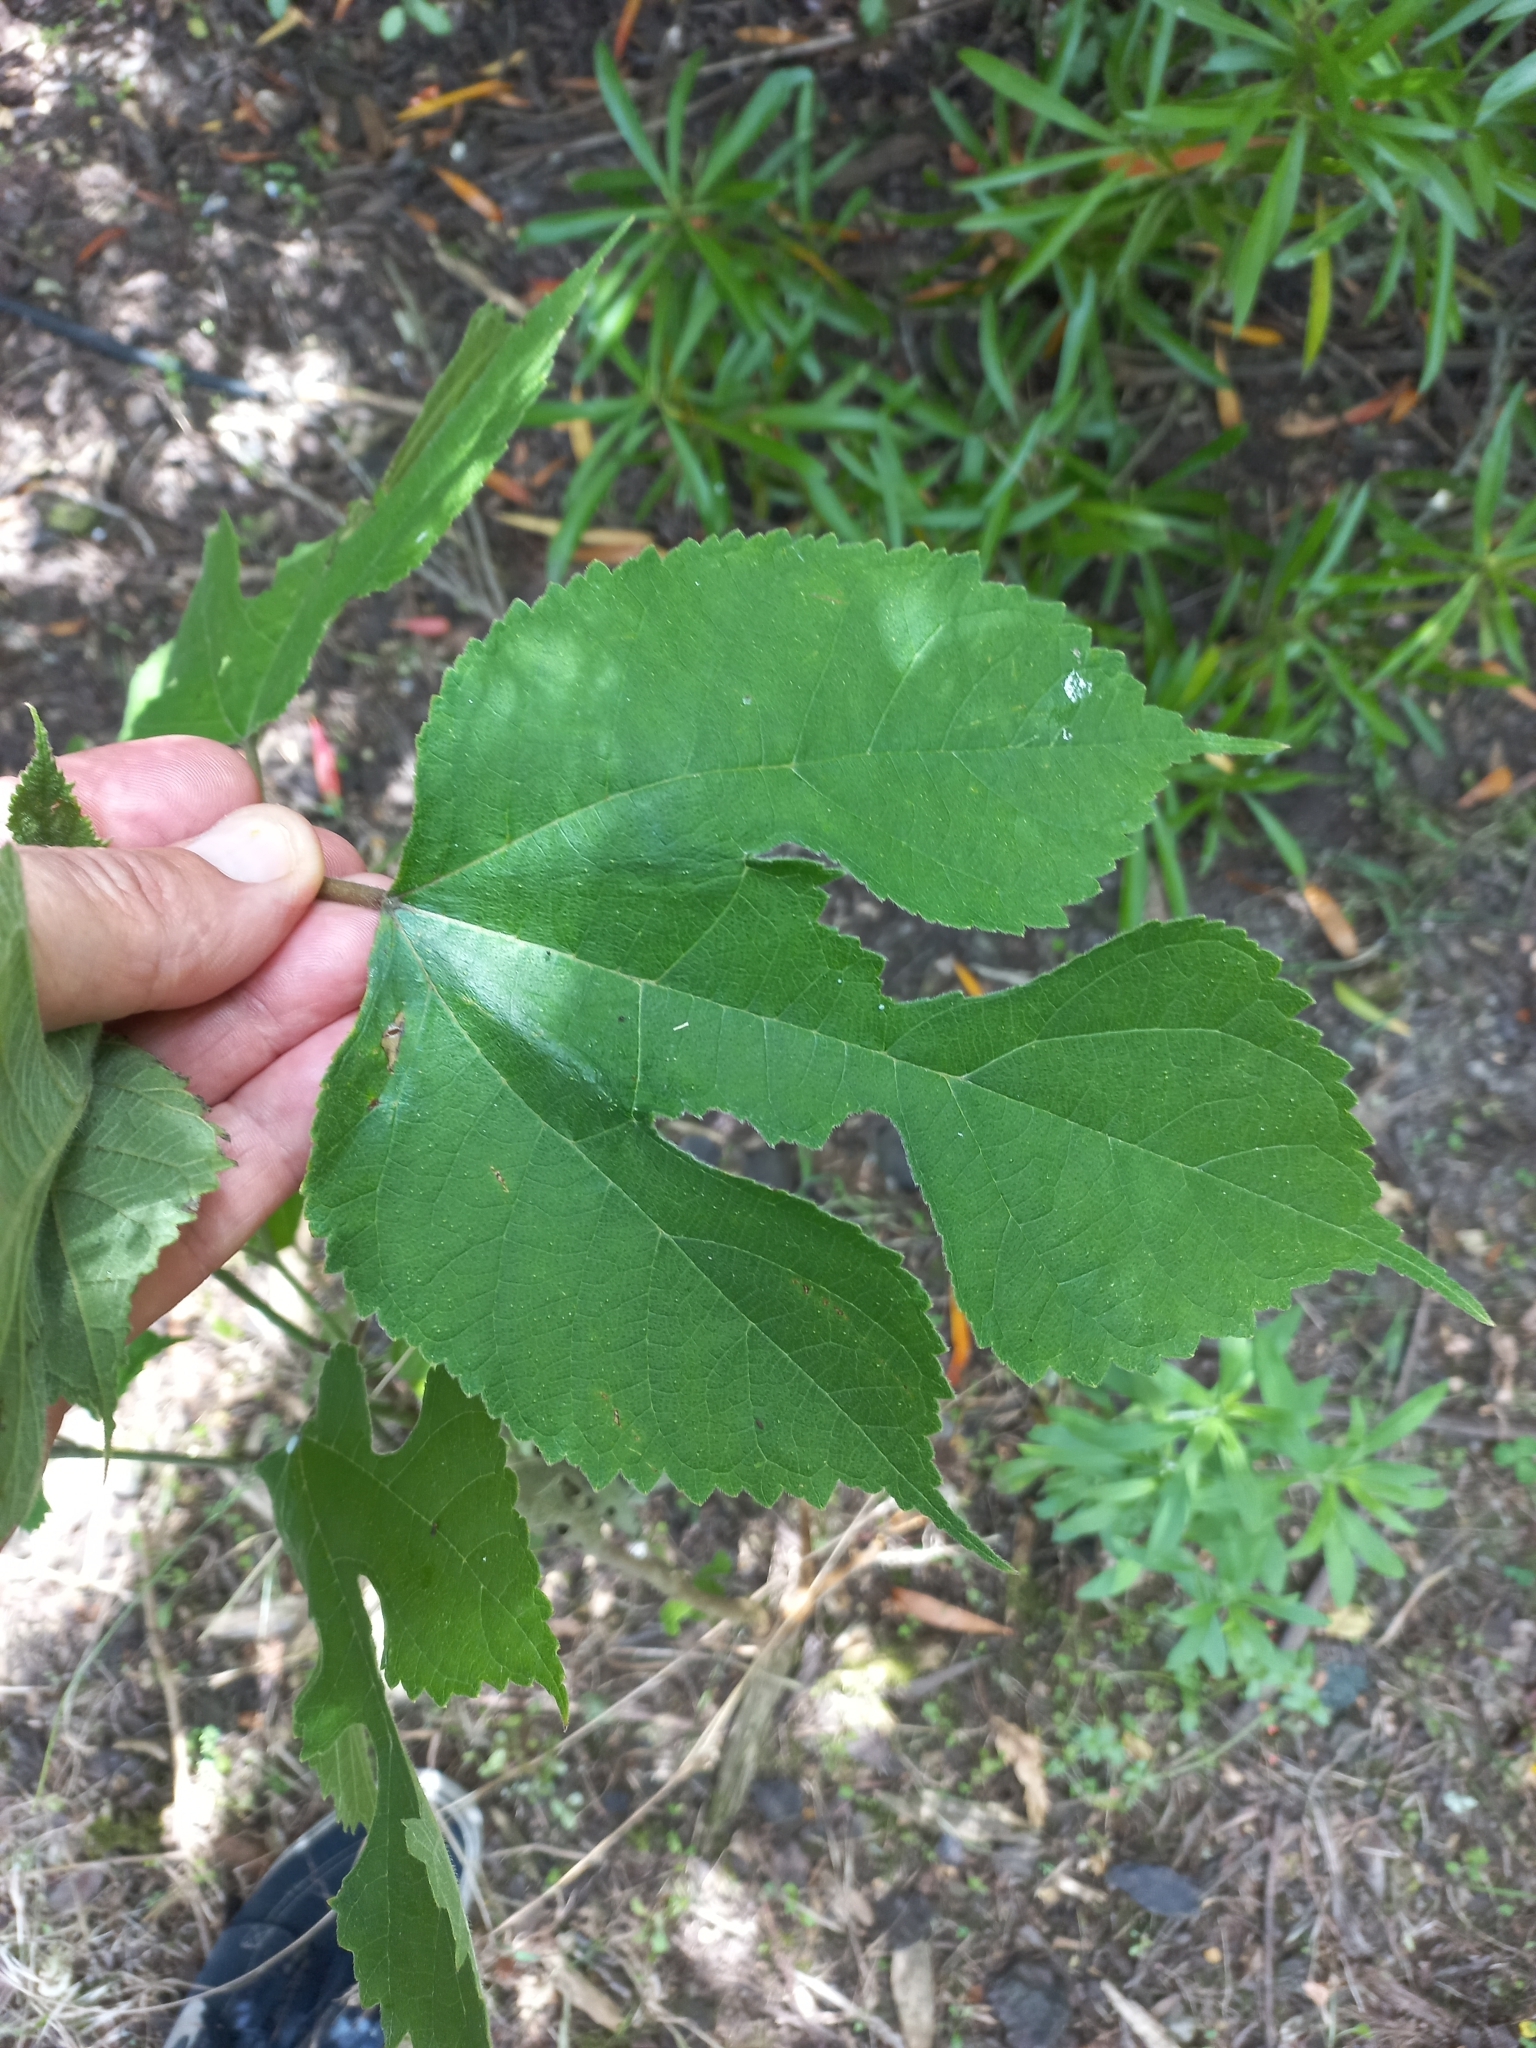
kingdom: Plantae
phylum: Tracheophyta
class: Magnoliopsida
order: Rosales
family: Moraceae
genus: Broussonetia
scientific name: Broussonetia papyrifera
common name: Paper mulberry
